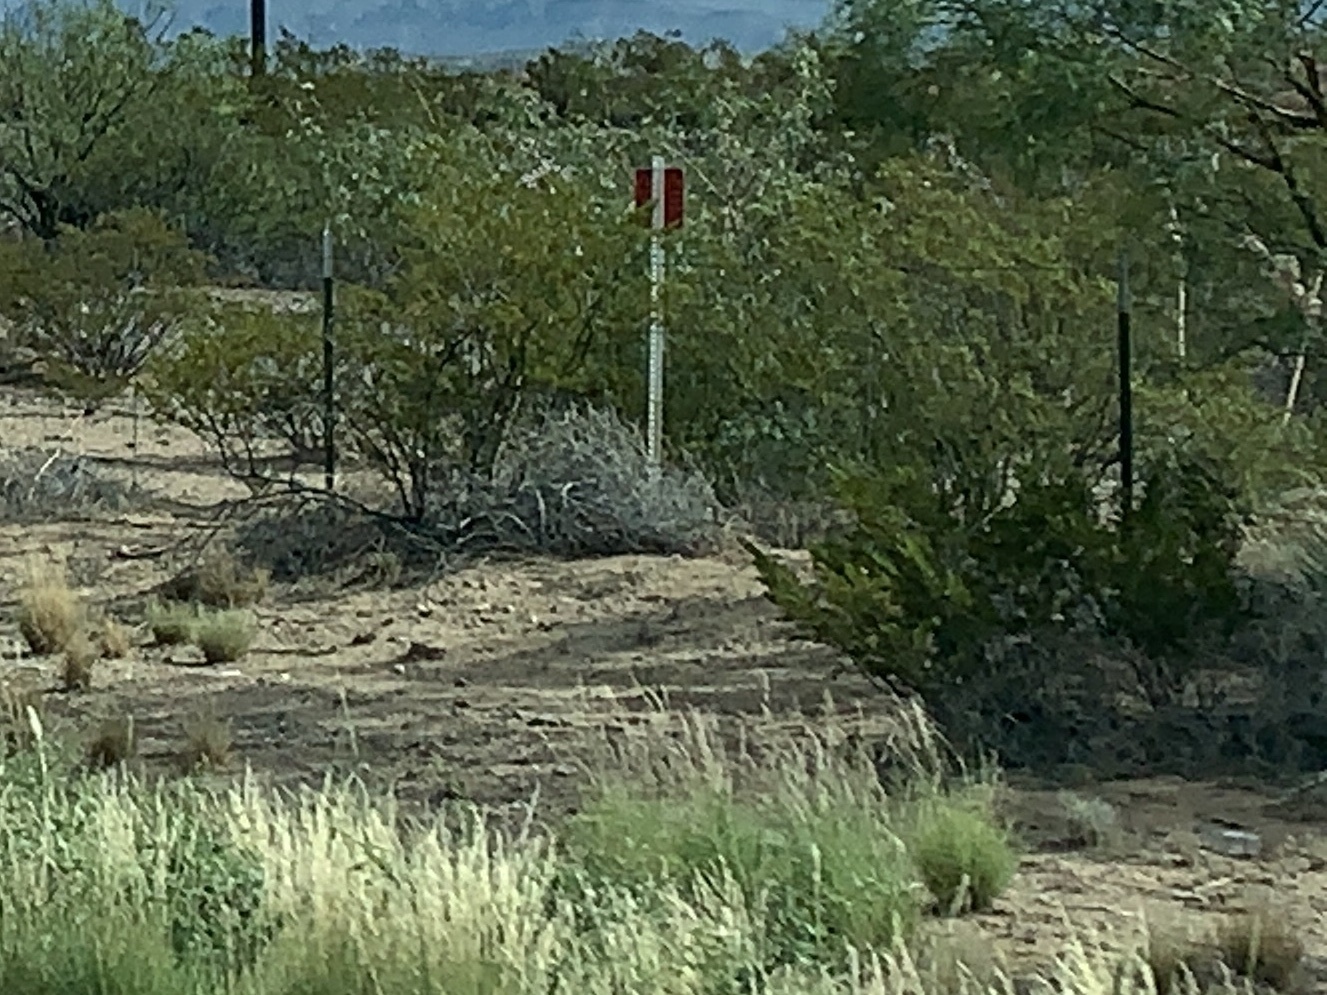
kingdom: Plantae
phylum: Tracheophyta
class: Magnoliopsida
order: Zygophyllales
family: Zygophyllaceae
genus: Larrea
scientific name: Larrea tridentata
